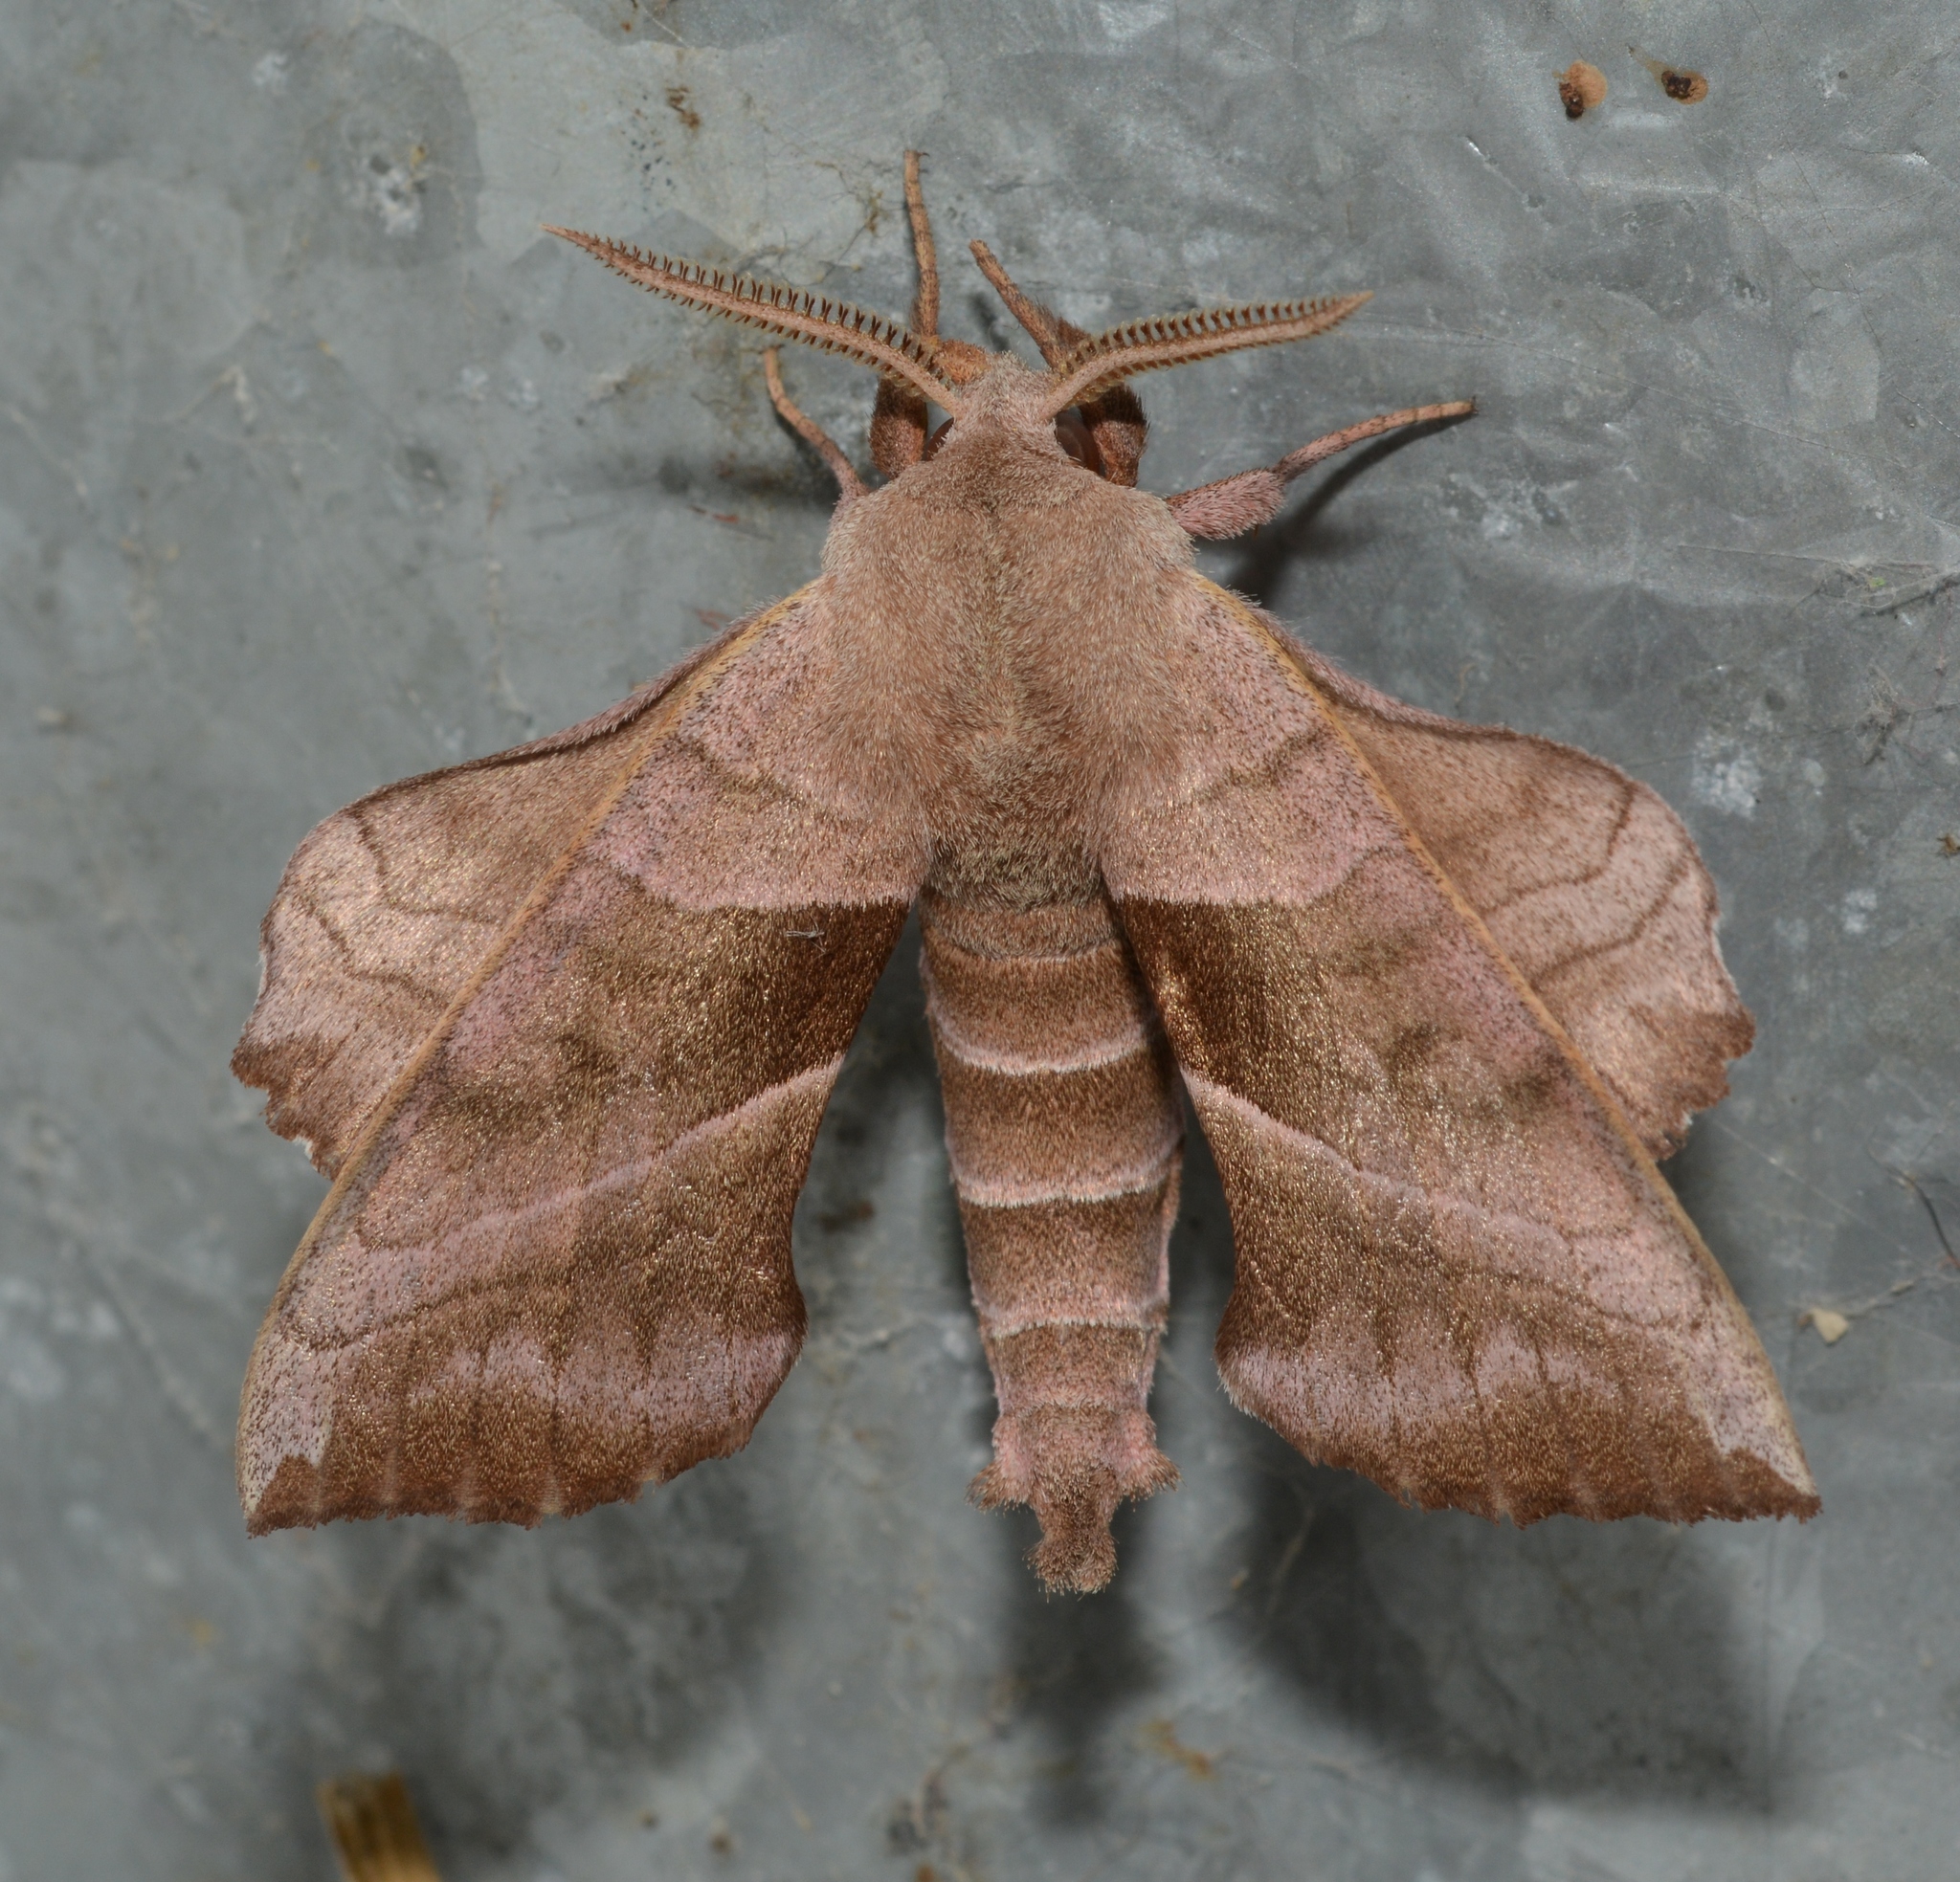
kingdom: Animalia
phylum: Arthropoda
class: Insecta
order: Lepidoptera
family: Sphingidae
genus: Amorpha
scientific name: Amorpha juglandis
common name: Walnut sphinx
